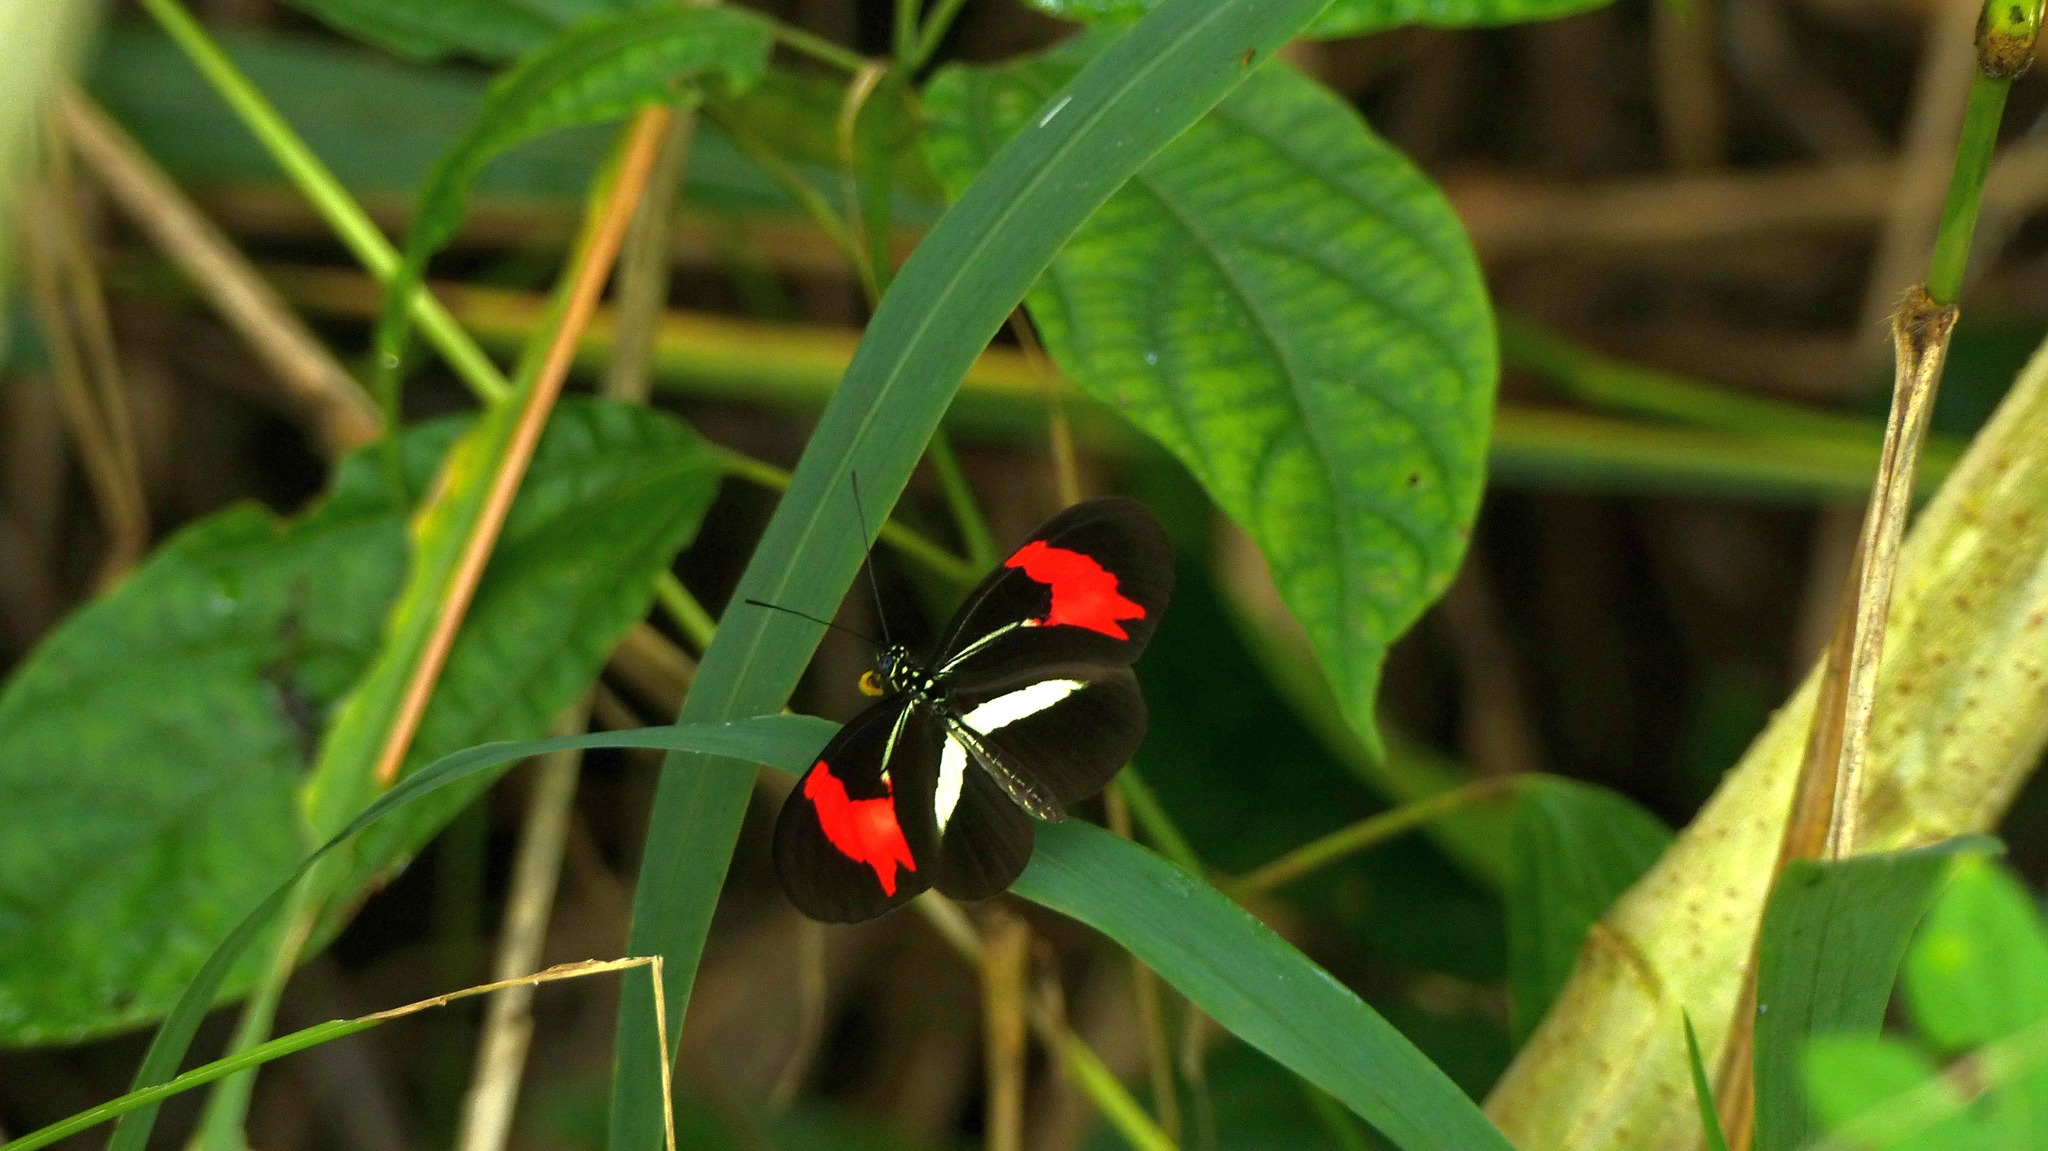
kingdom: Animalia
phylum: Arthropoda
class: Insecta
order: Lepidoptera
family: Nymphalidae
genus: Heliconius
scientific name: Heliconius erato
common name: Common patch longwing
